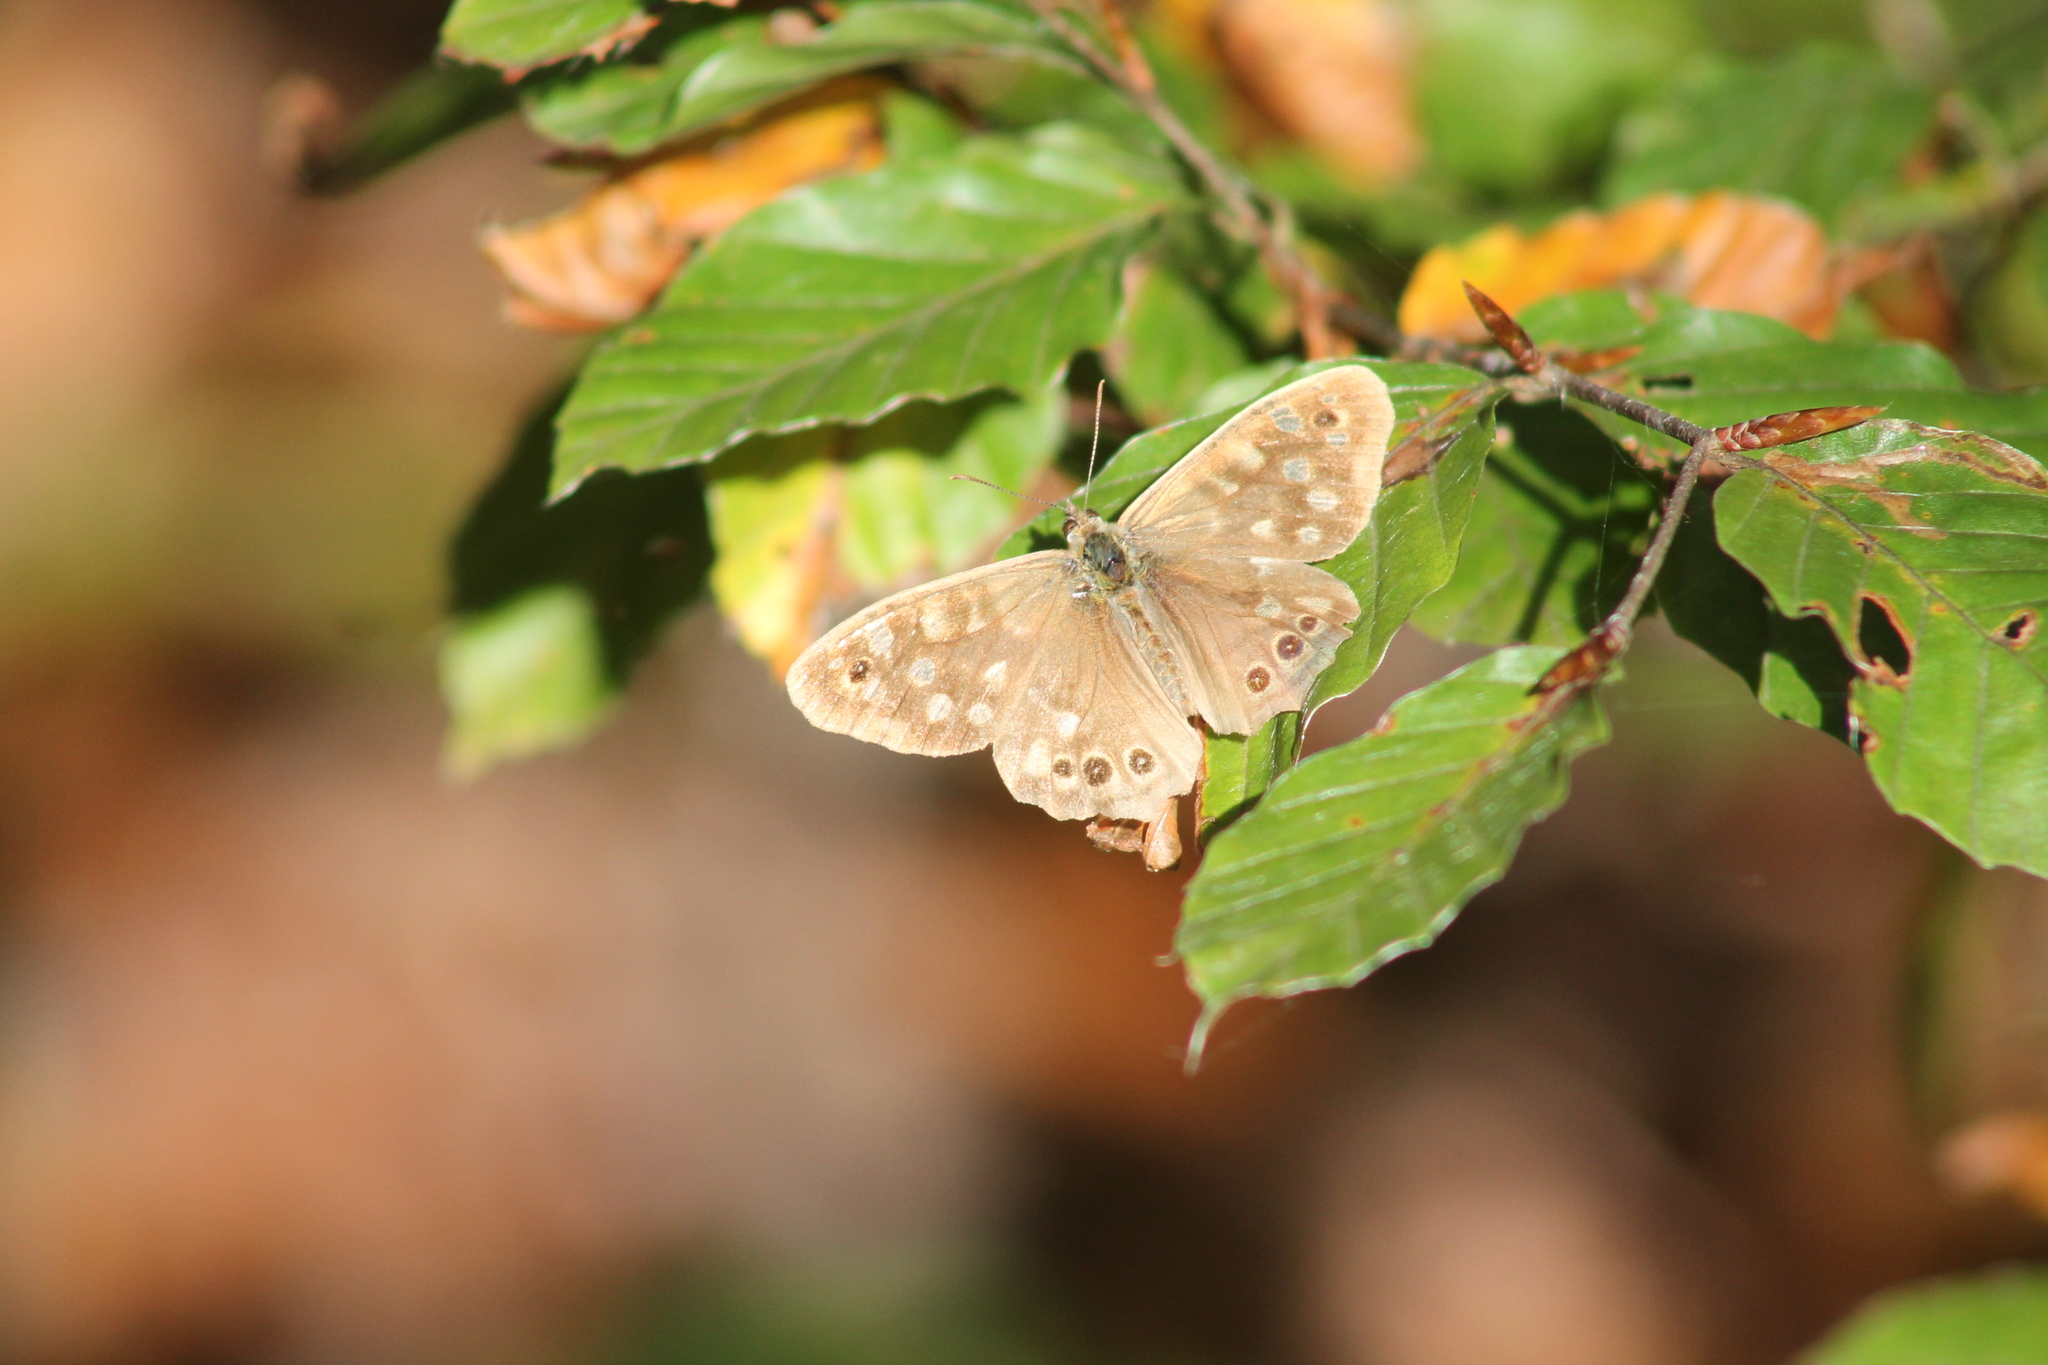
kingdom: Animalia
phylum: Arthropoda
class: Insecta
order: Lepidoptera
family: Nymphalidae
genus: Pararge
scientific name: Pararge aegeria
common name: Speckled wood
